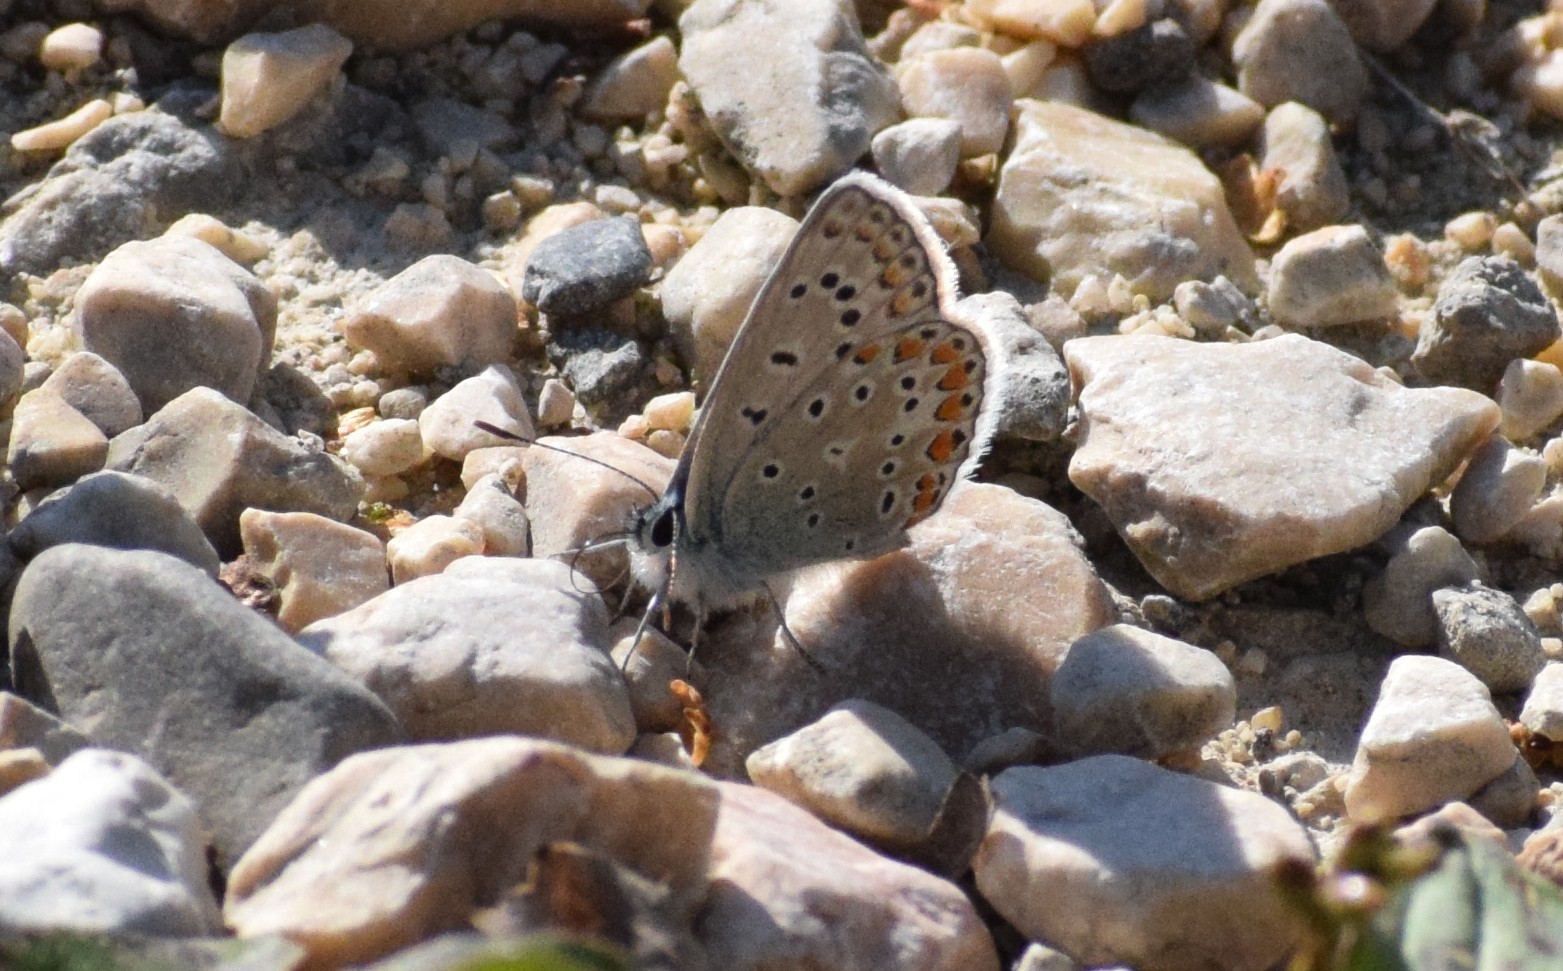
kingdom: Animalia
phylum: Arthropoda
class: Insecta
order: Lepidoptera
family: Lycaenidae
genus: Polyommatus
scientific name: Polyommatus icarus
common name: Common blue
